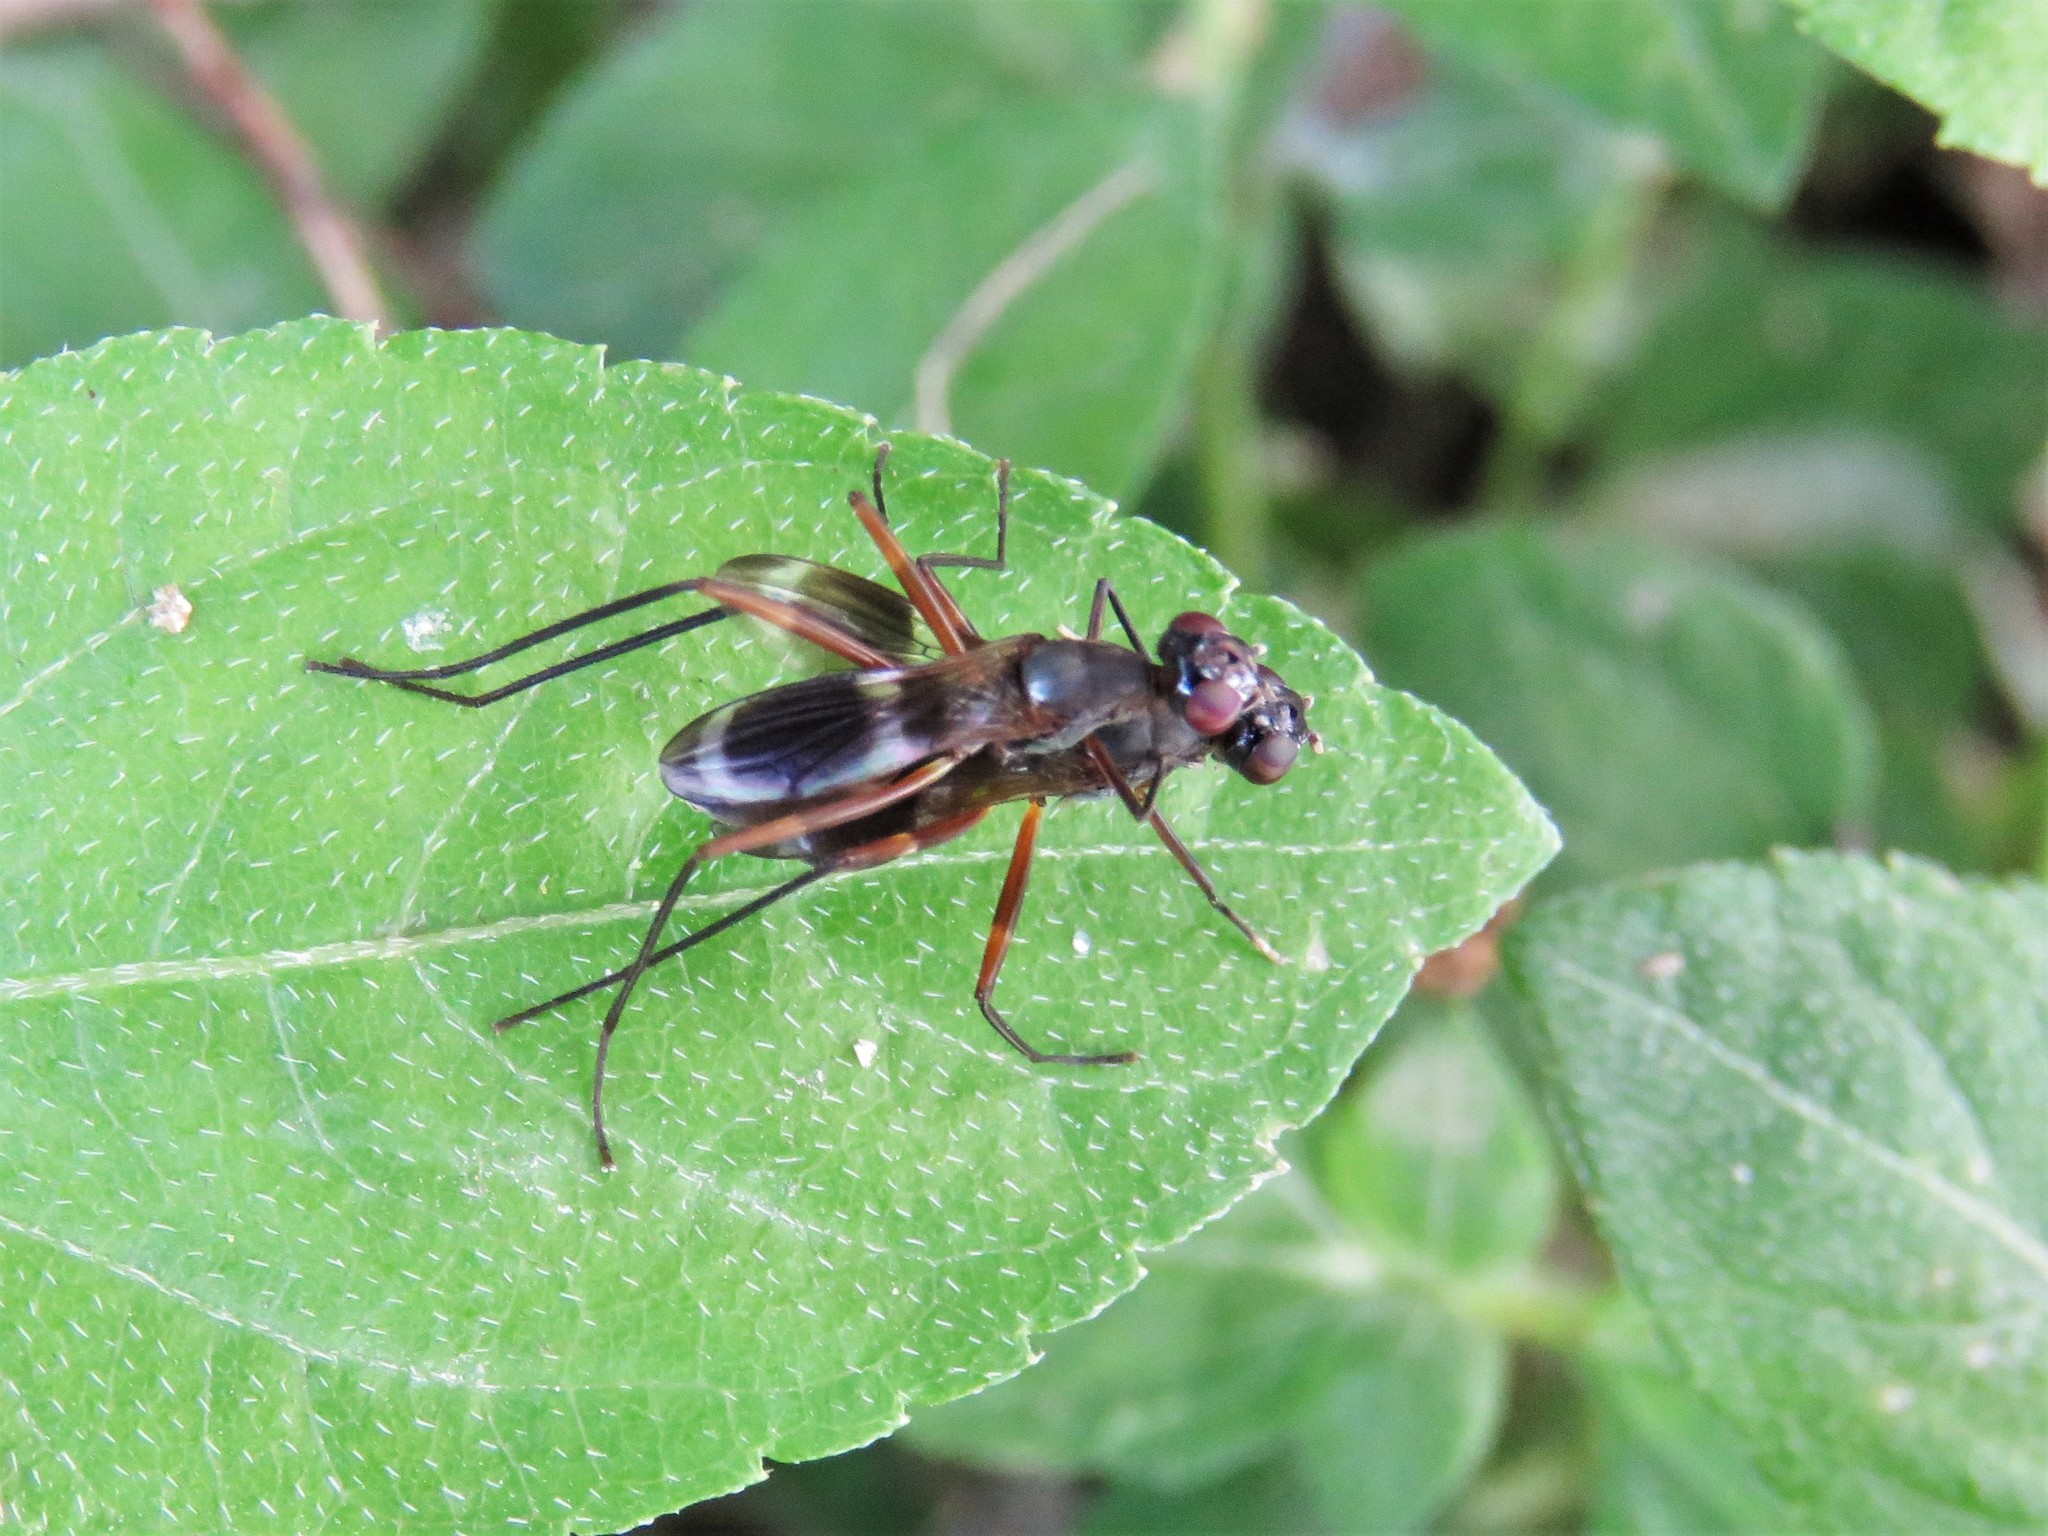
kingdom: Animalia
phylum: Arthropoda
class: Insecta
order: Diptera
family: Micropezidae
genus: Taeniaptera
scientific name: Taeniaptera trivittata
